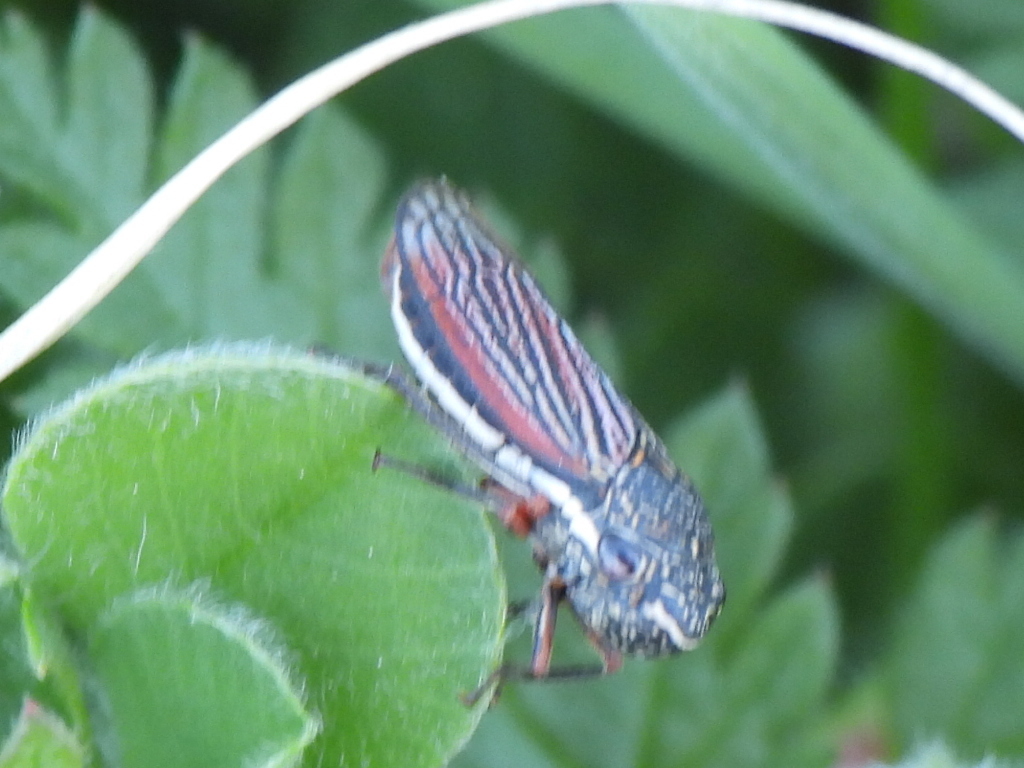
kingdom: Animalia
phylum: Arthropoda
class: Insecta
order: Hemiptera
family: Cicadellidae
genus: Cuerna
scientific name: Cuerna costalis
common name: Lateral-lined sharpshooter
